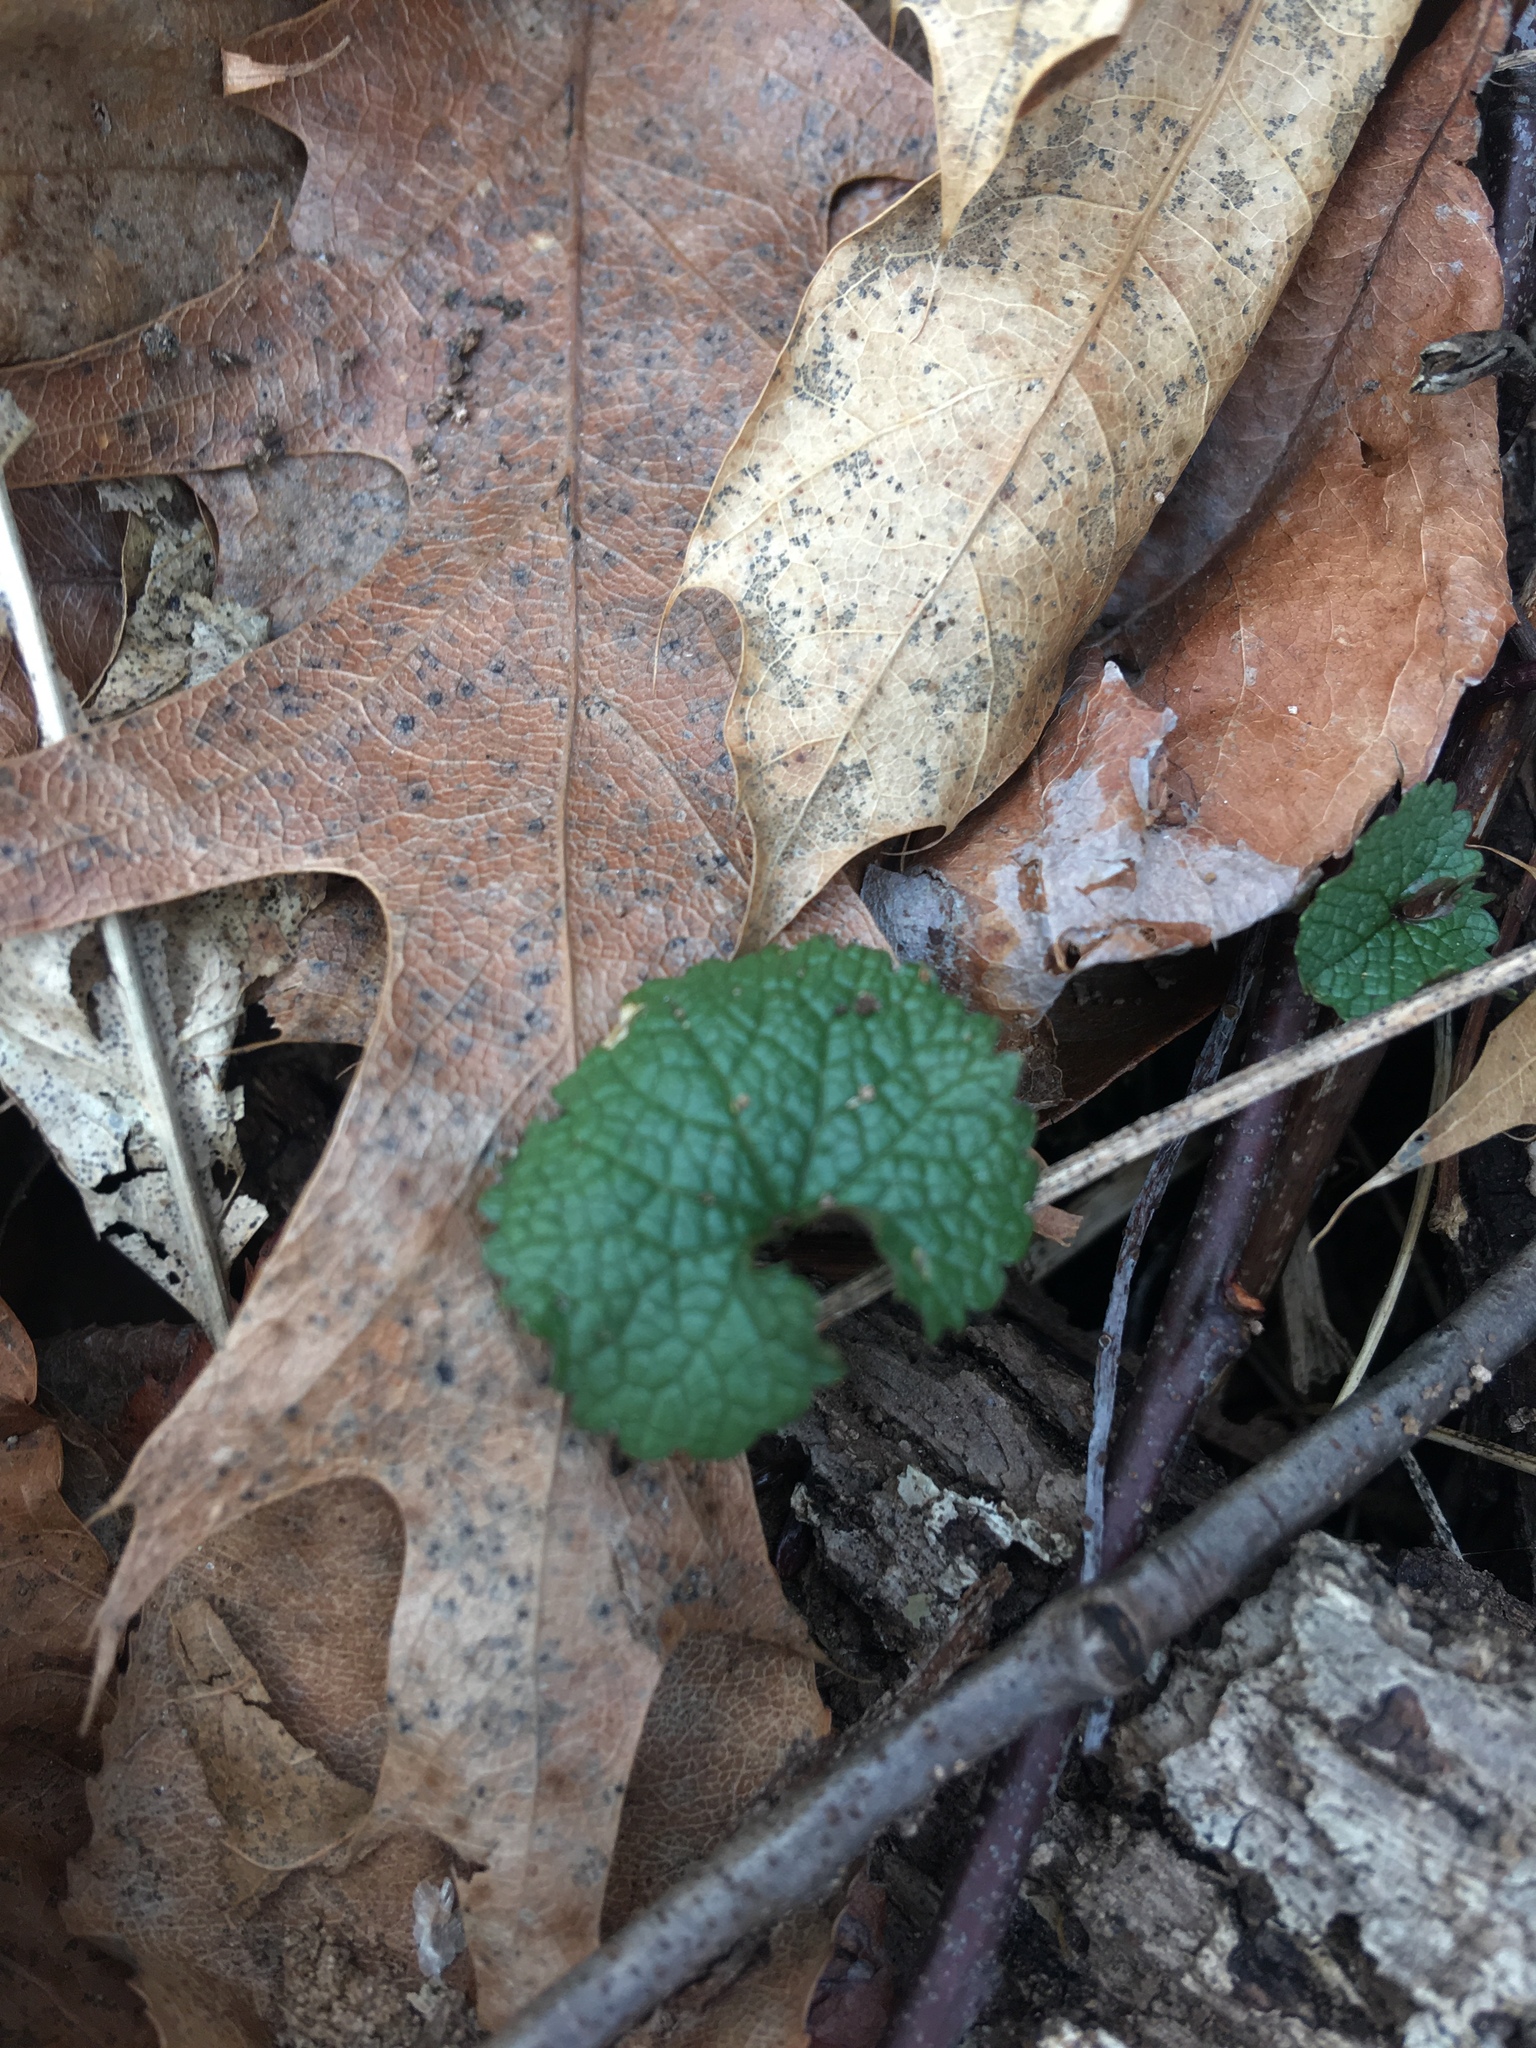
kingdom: Plantae
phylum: Tracheophyta
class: Magnoliopsida
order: Brassicales
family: Brassicaceae
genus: Alliaria
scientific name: Alliaria petiolata
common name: Garlic mustard
